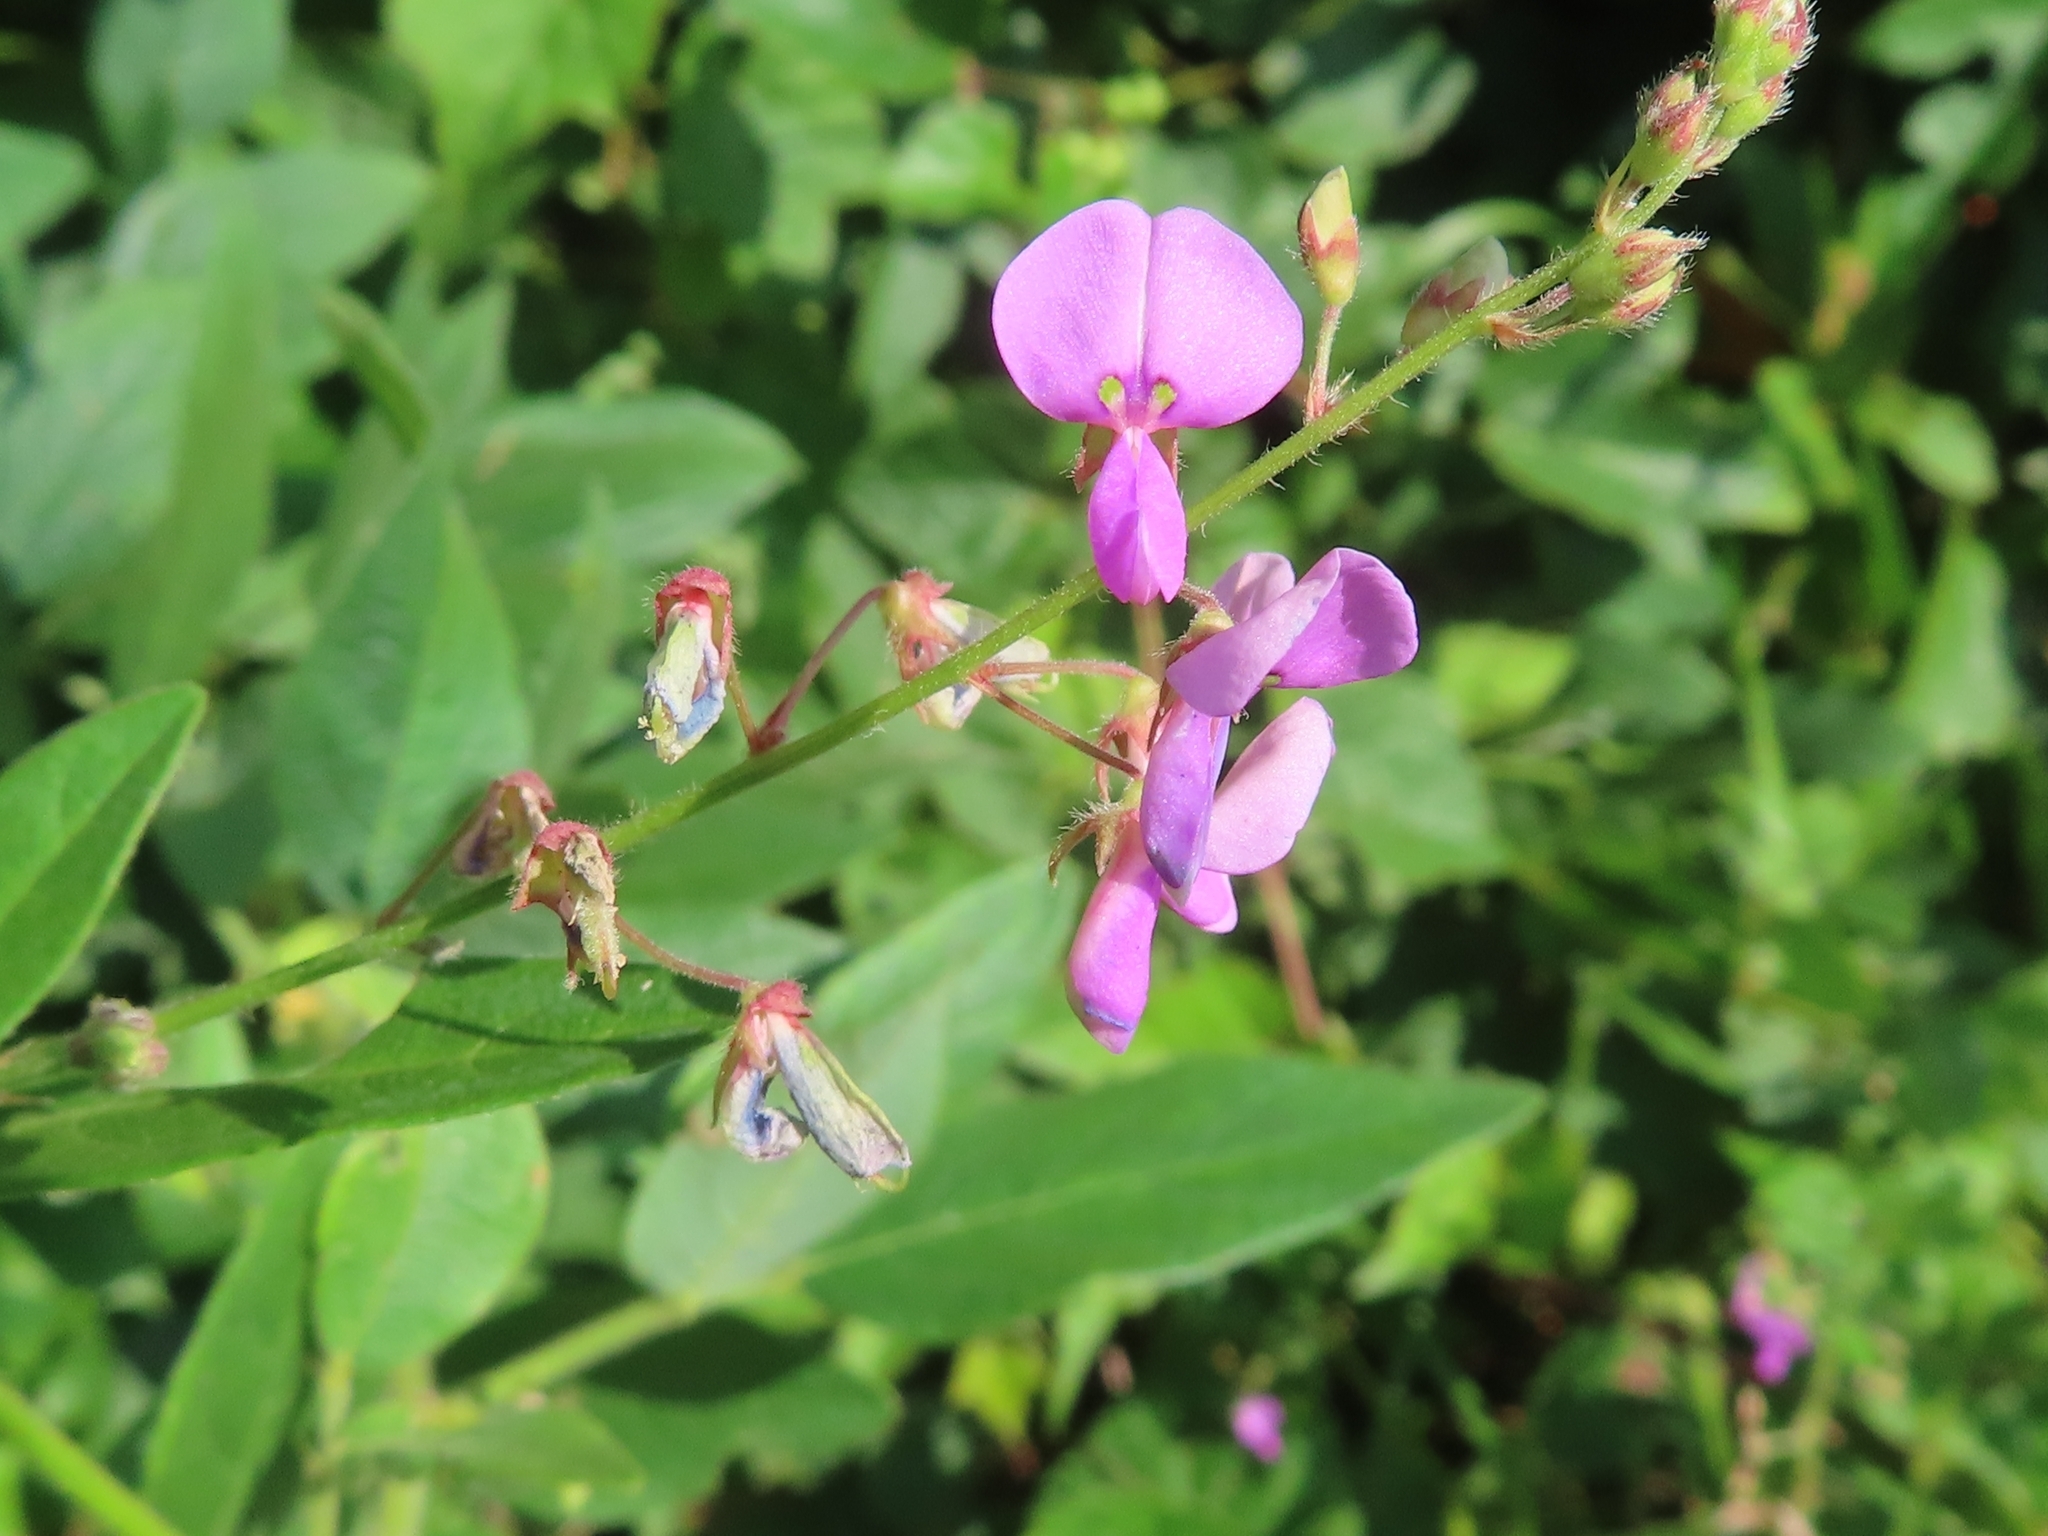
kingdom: Plantae
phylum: Tracheophyta
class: Magnoliopsida
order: Fabales
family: Fabaceae
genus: Desmodium
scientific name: Desmodium glabellum
